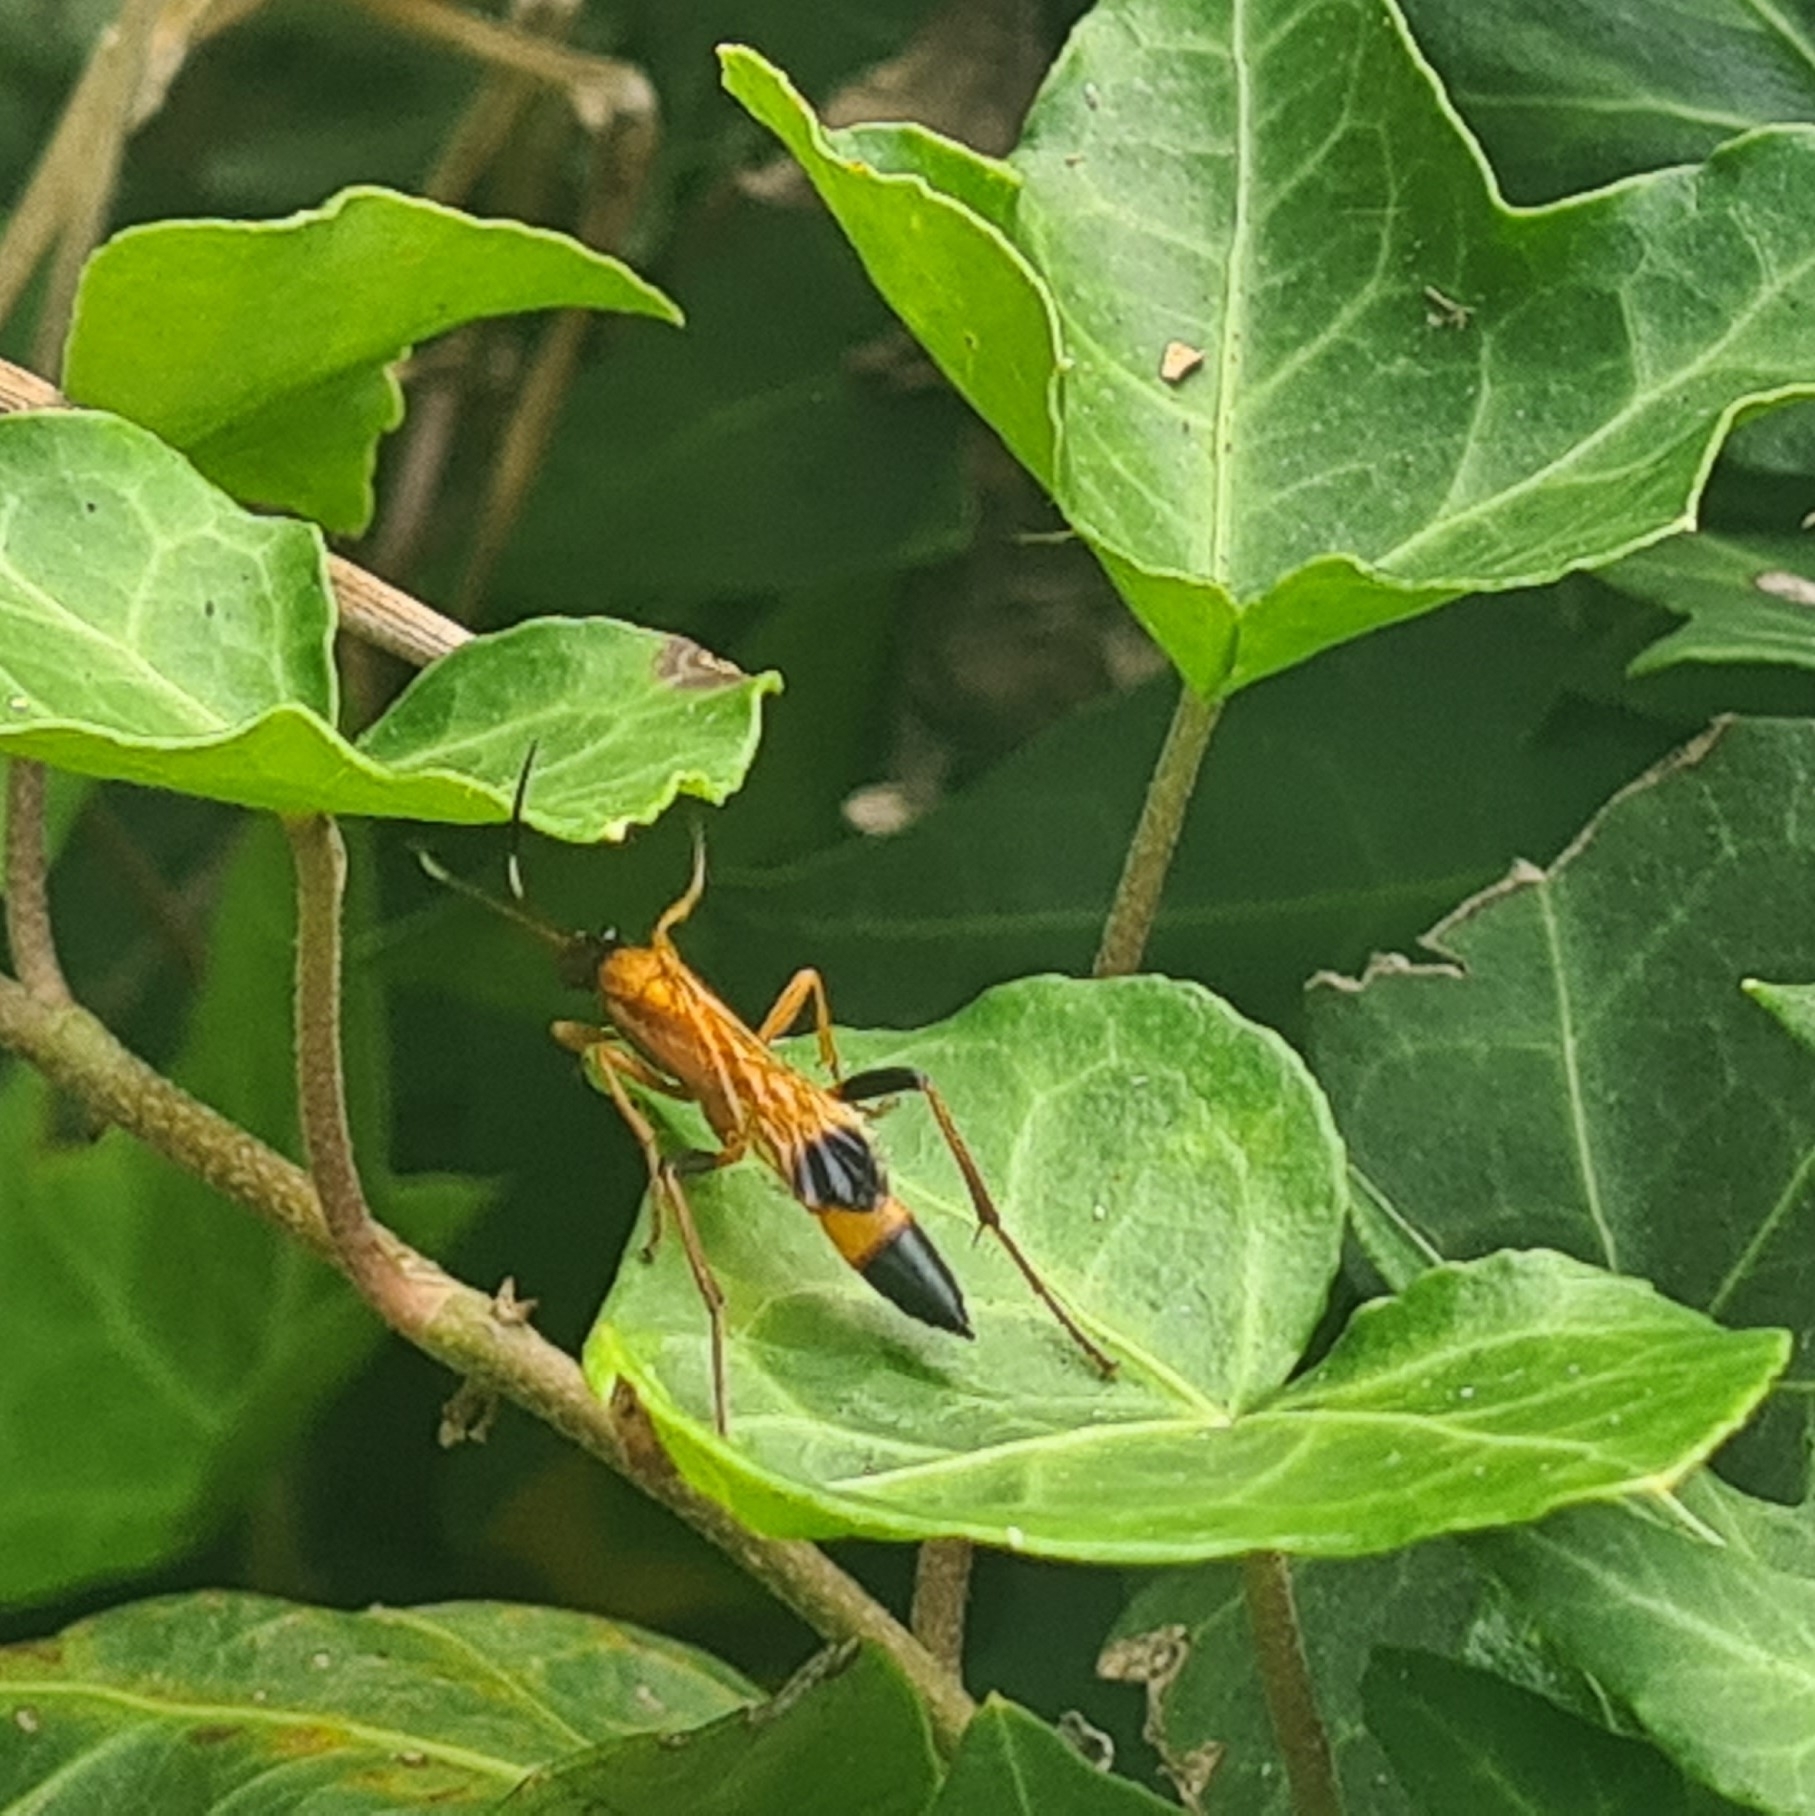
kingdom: Animalia
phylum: Arthropoda
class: Insecta
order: Hymenoptera
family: Ichneumonidae
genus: Ctenochares
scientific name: Ctenochares bicolorus
